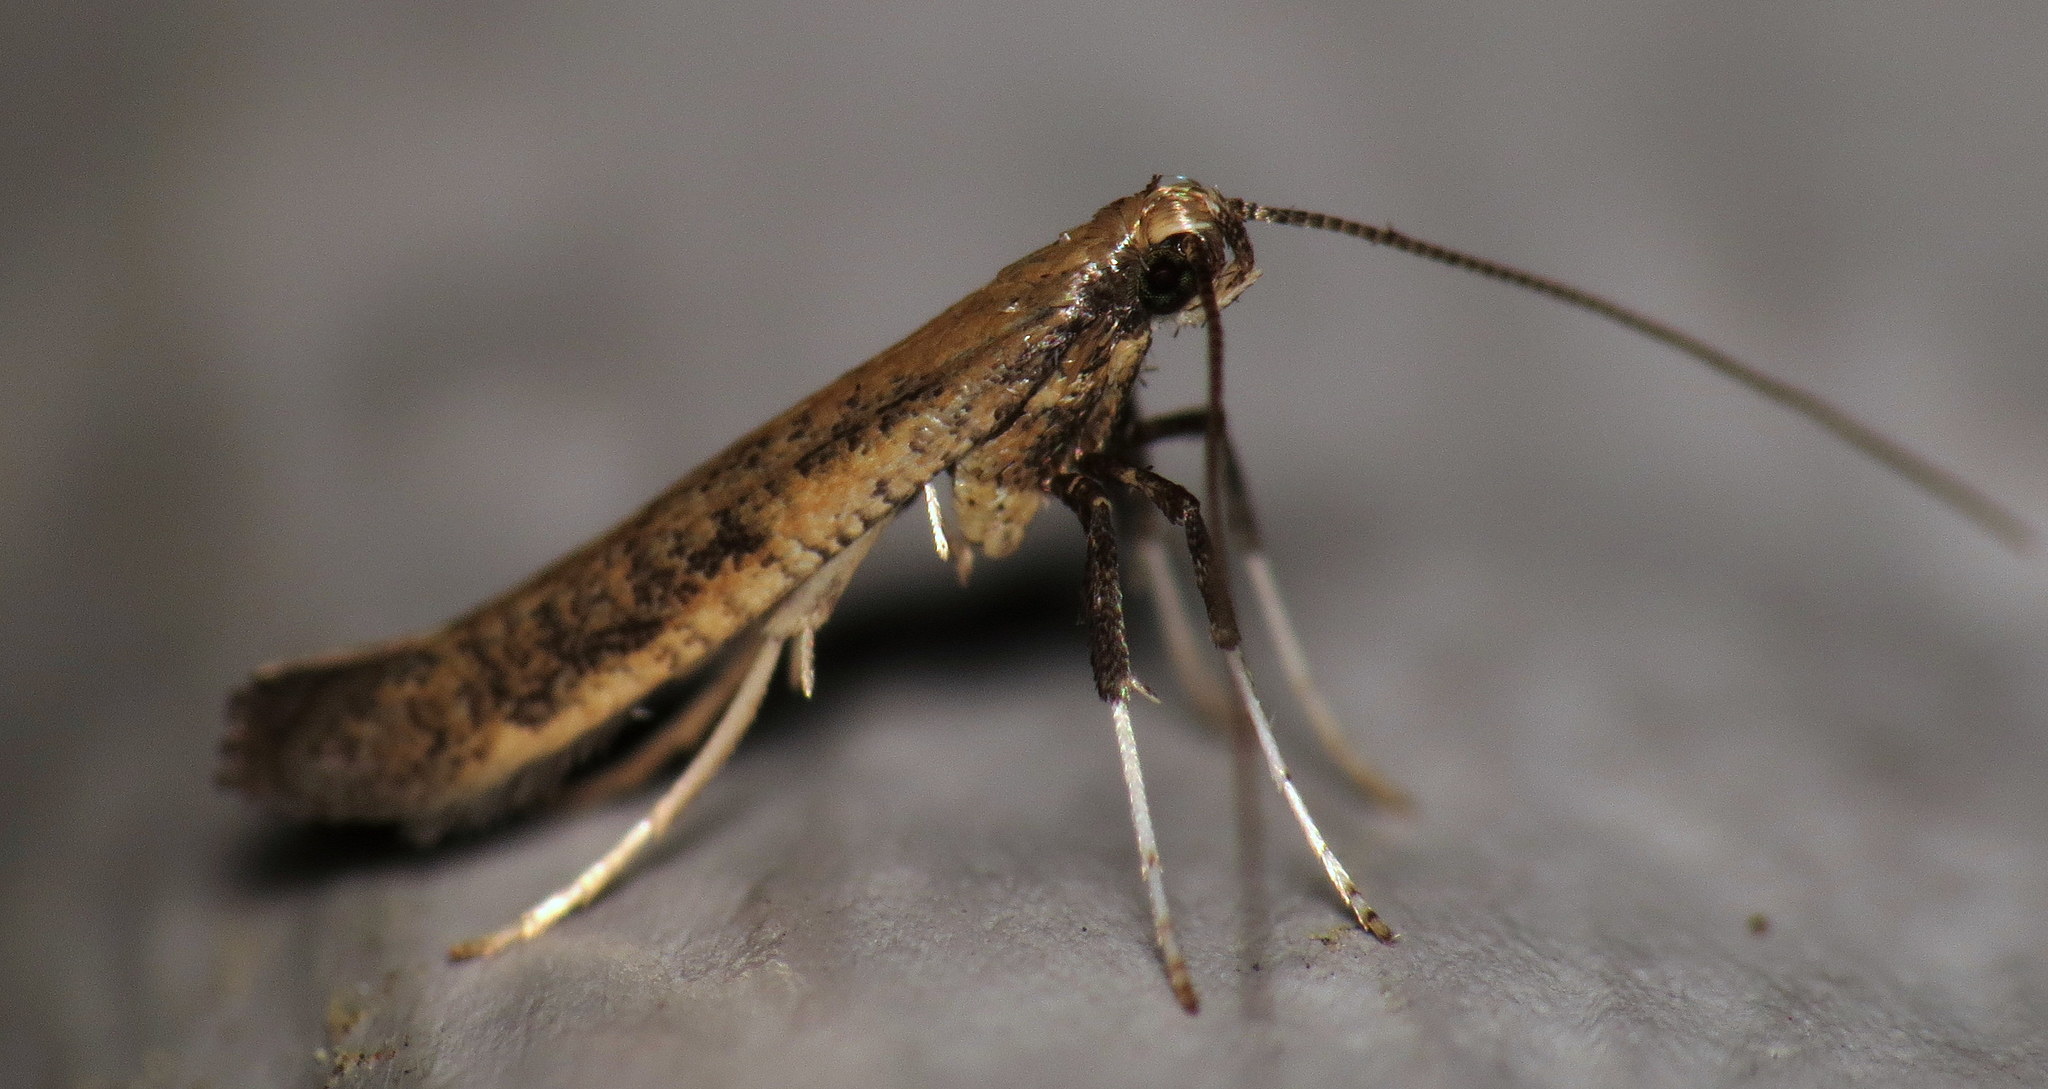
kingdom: Animalia
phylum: Arthropoda
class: Insecta
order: Lepidoptera
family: Gracillariidae
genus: Caloptilia
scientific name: Caloptilia hypericella
